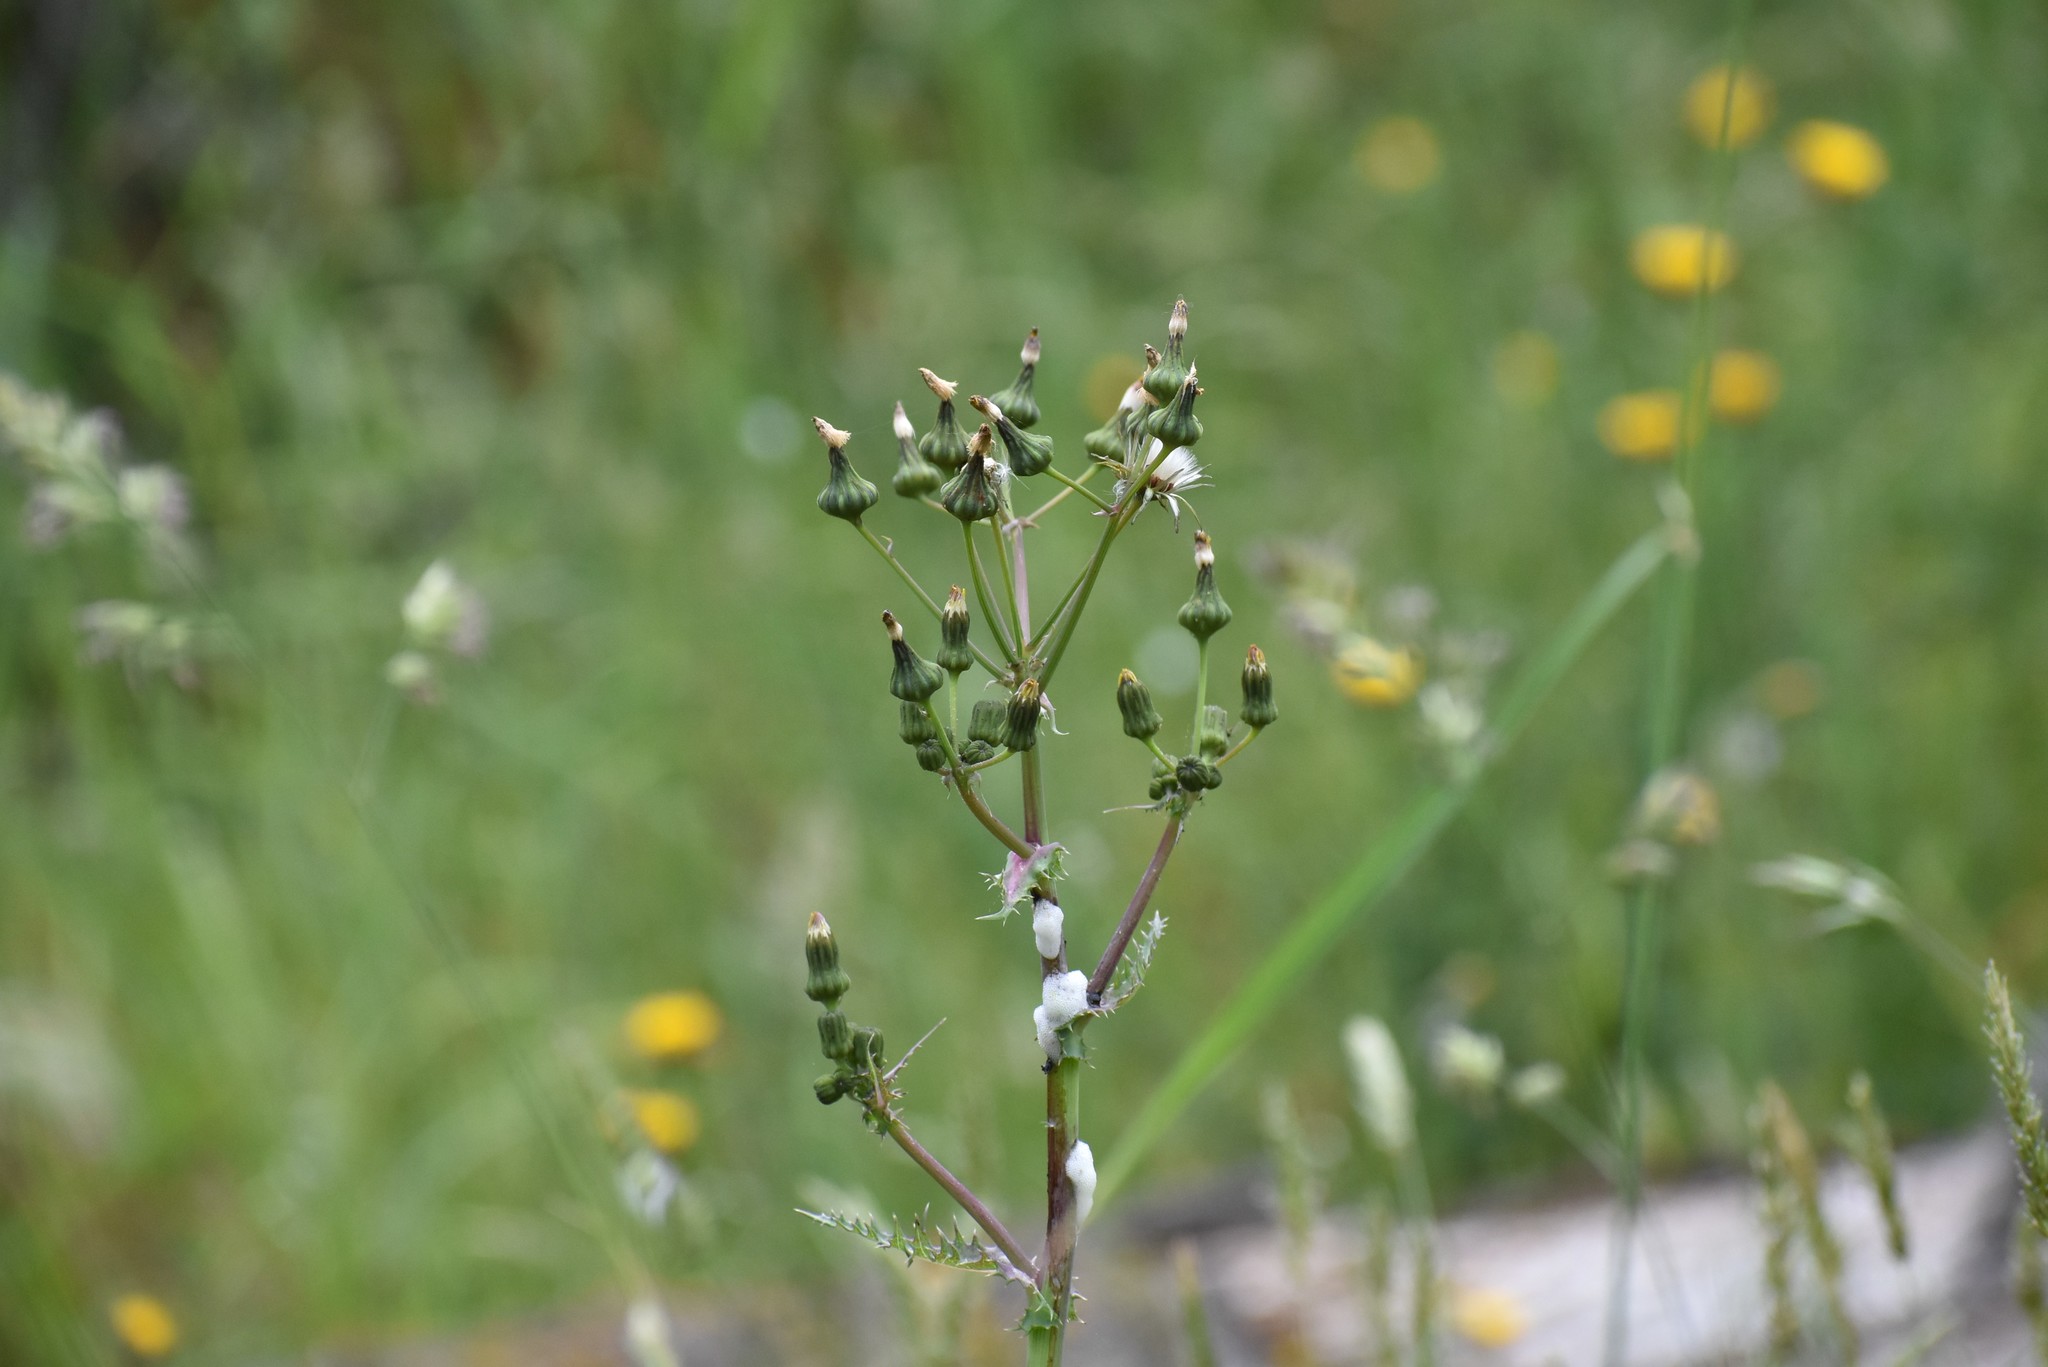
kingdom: Plantae
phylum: Tracheophyta
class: Magnoliopsida
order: Asterales
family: Asteraceae
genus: Sonchus
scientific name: Sonchus asper
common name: Prickly sow-thistle
